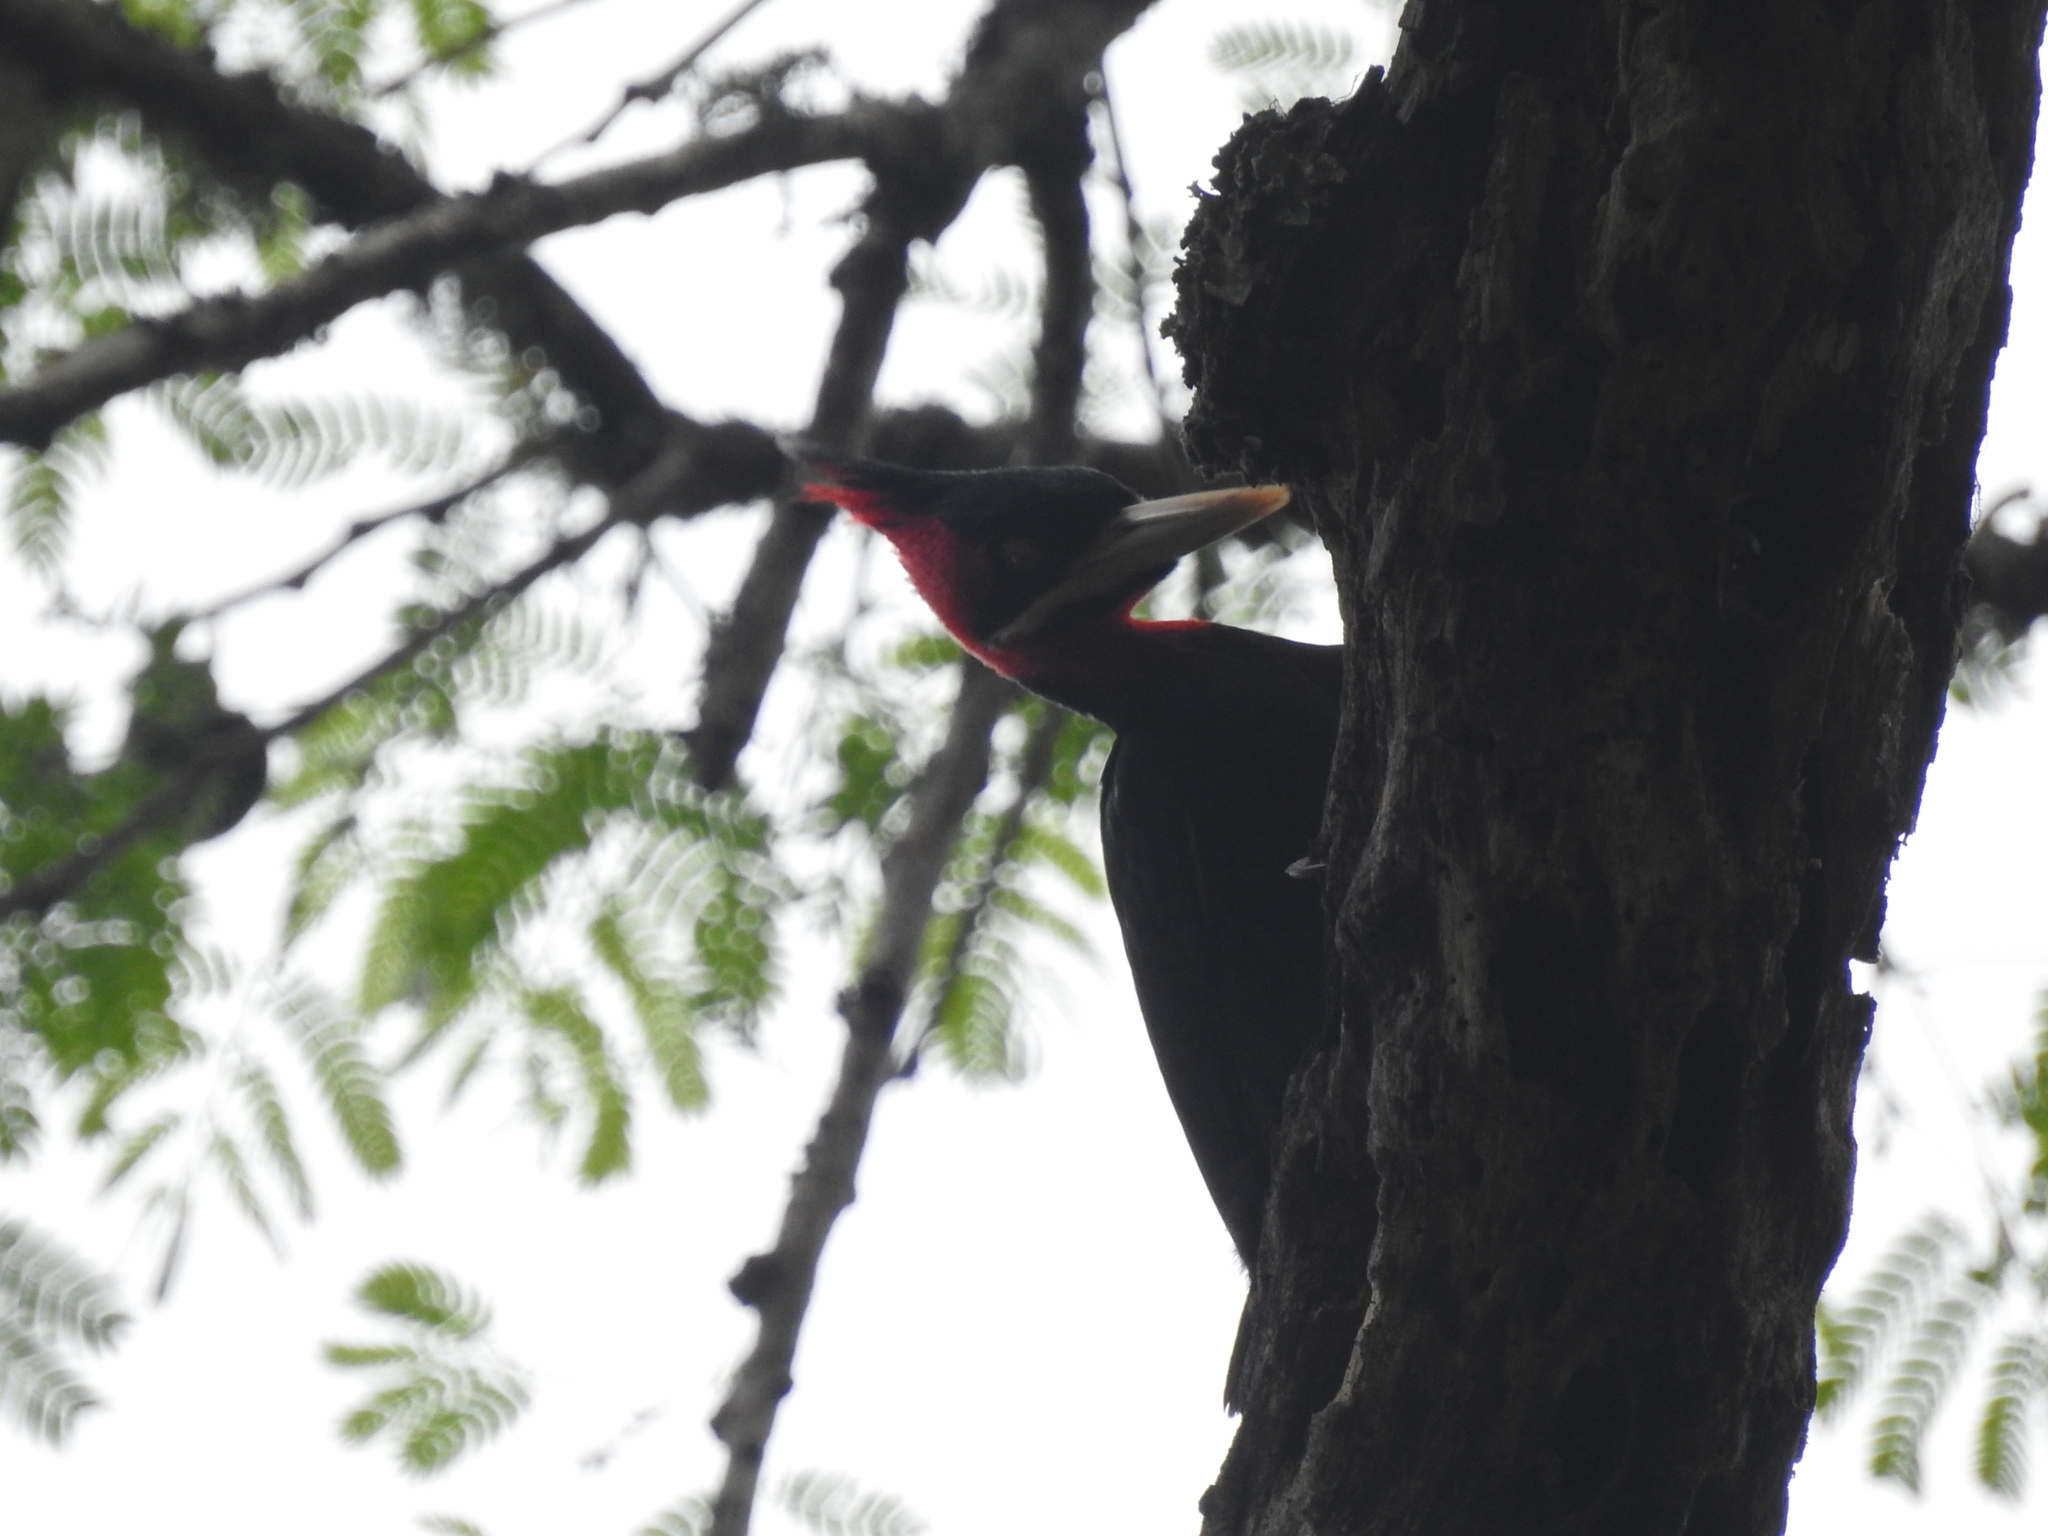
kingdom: Animalia
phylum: Chordata
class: Aves
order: Piciformes
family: Picidae
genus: Campephilus
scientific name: Campephilus leucopogon
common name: Cream-backed woodpecker
